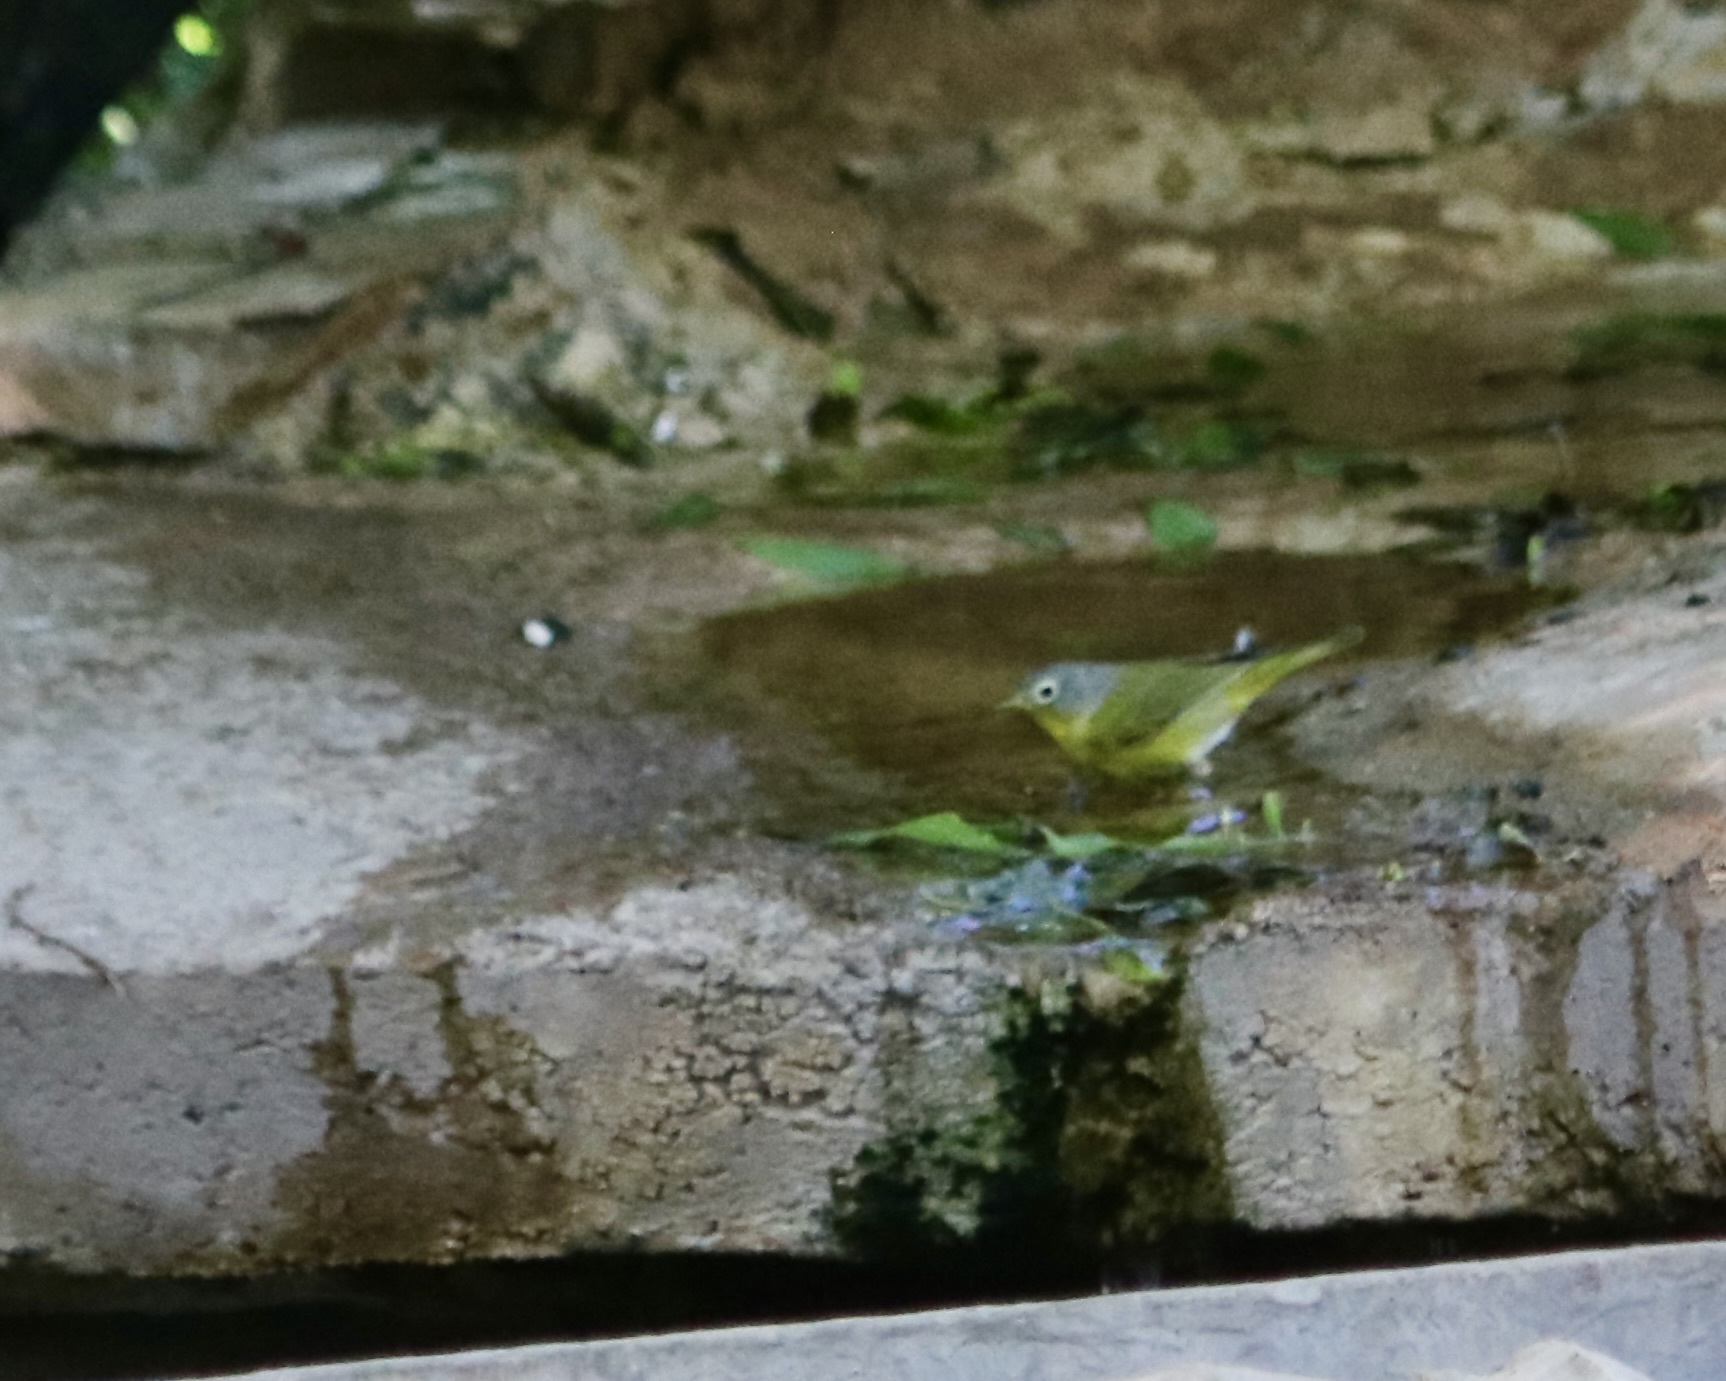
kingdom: Animalia
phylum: Chordata
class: Aves
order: Passeriformes
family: Parulidae
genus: Leiothlypis
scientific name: Leiothlypis ruficapilla
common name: Nashville warbler
